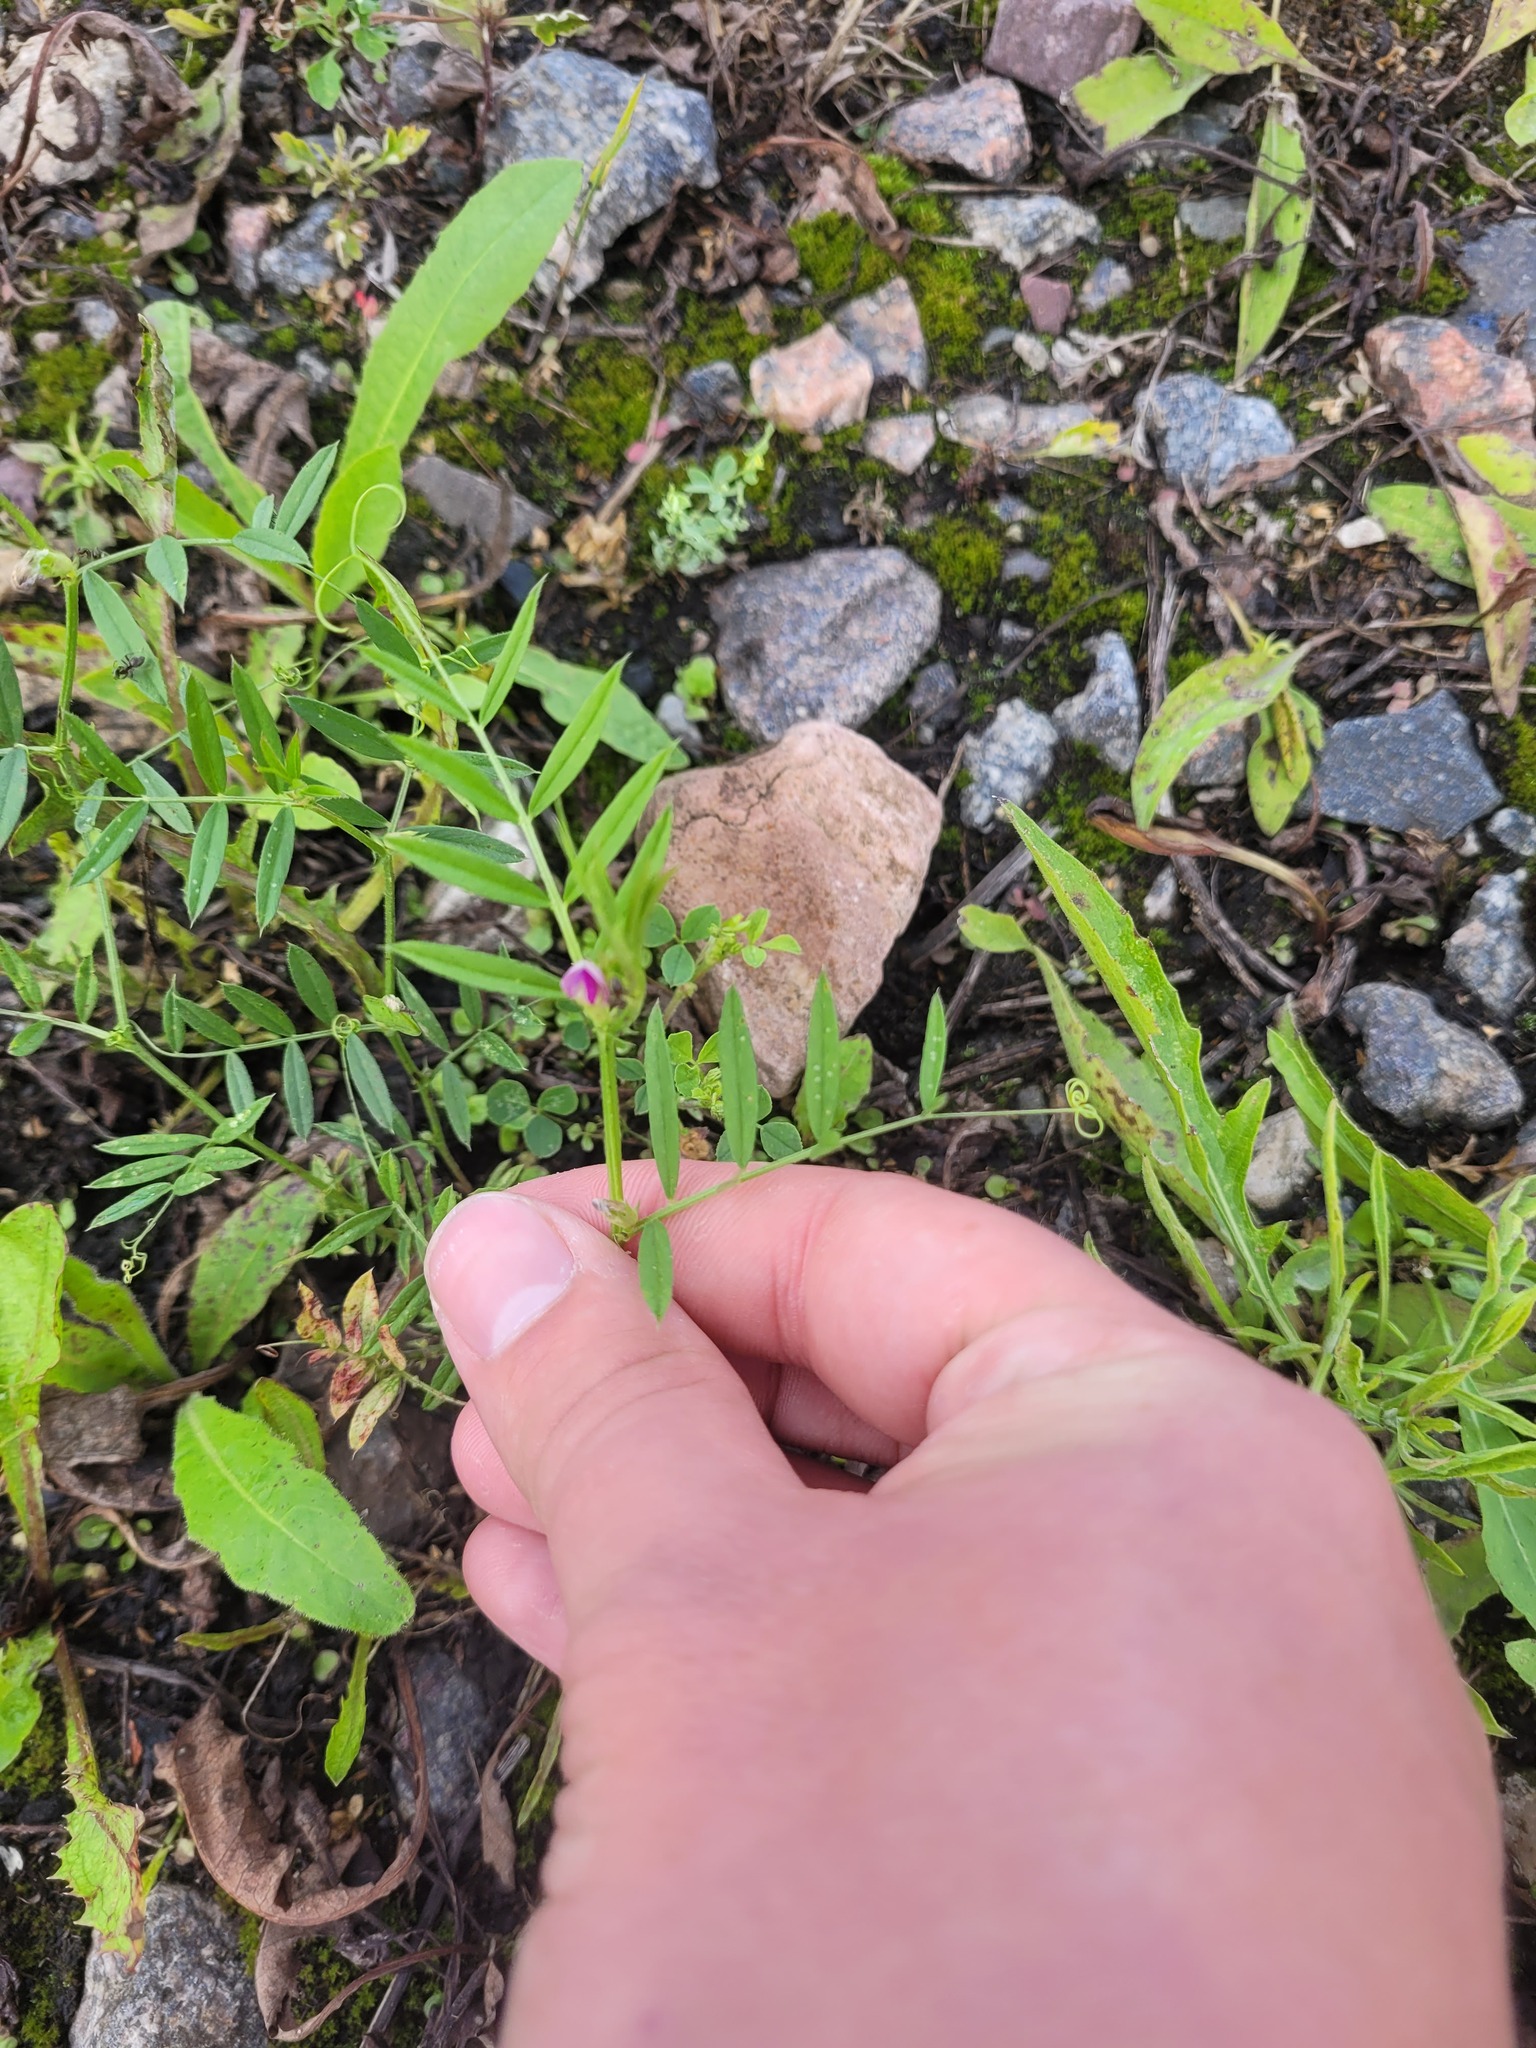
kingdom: Plantae
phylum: Tracheophyta
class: Magnoliopsida
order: Fabales
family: Fabaceae
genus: Vicia
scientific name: Vicia sativa
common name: Garden vetch
